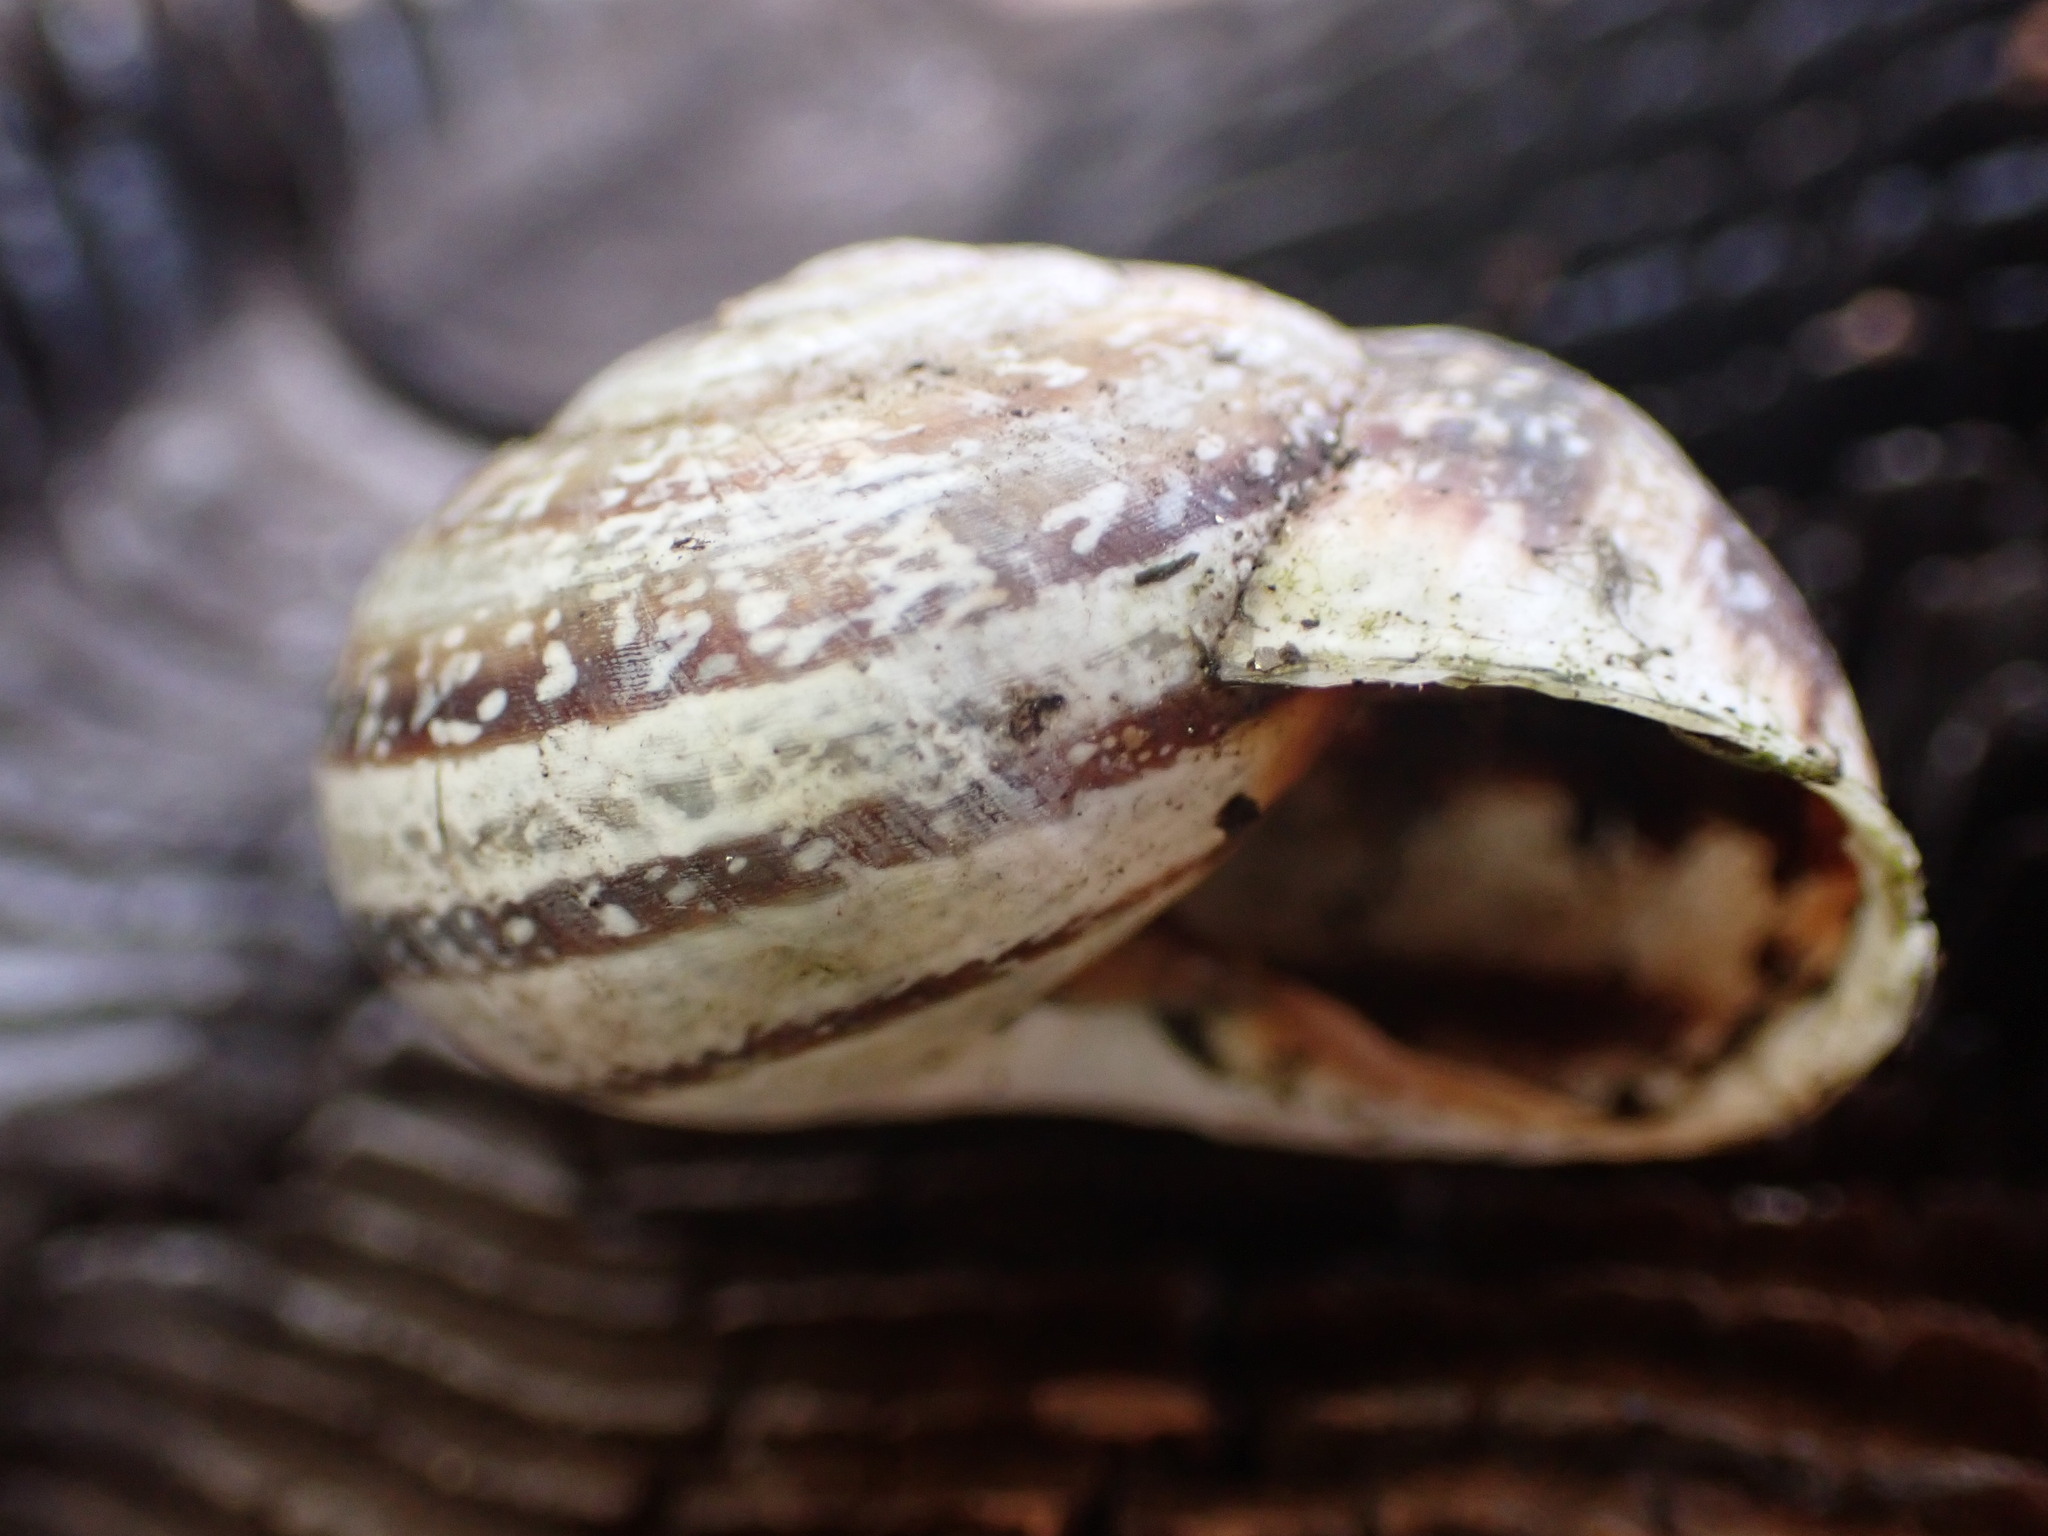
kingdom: Animalia
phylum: Mollusca
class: Gastropoda
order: Stylommatophora
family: Helicidae
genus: Otala
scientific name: Otala lactea
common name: Milk snail
